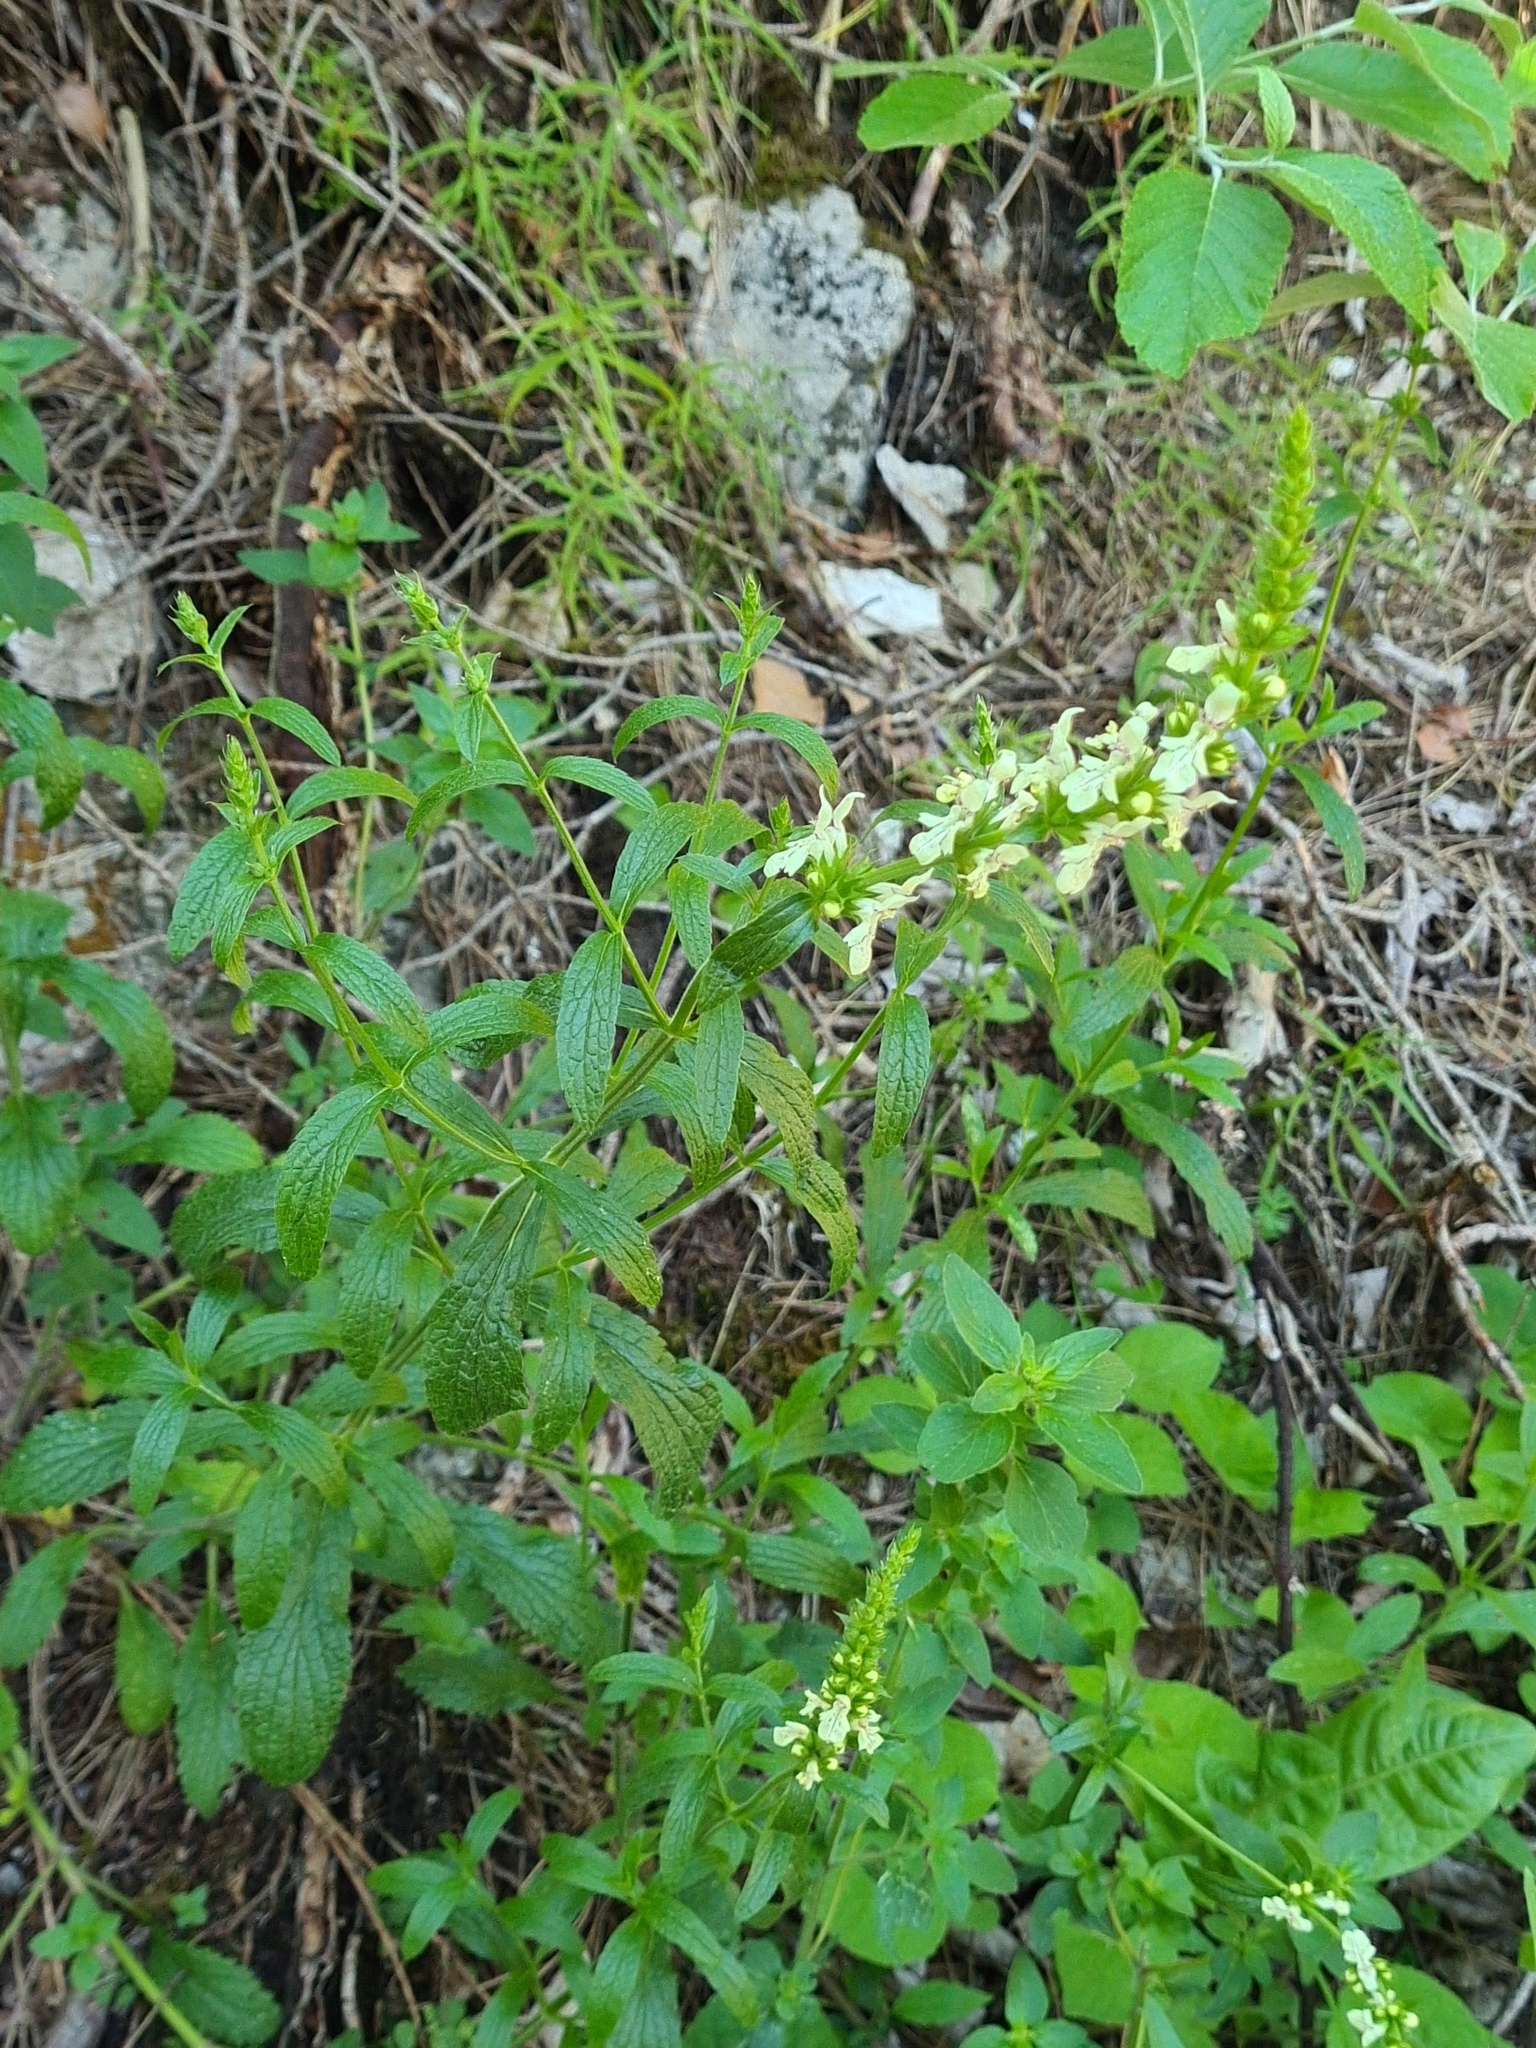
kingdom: Plantae
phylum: Tracheophyta
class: Magnoliopsida
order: Lamiales
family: Lamiaceae
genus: Stachys
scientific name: Stachys recta
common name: Perennial yellow-woundwort
